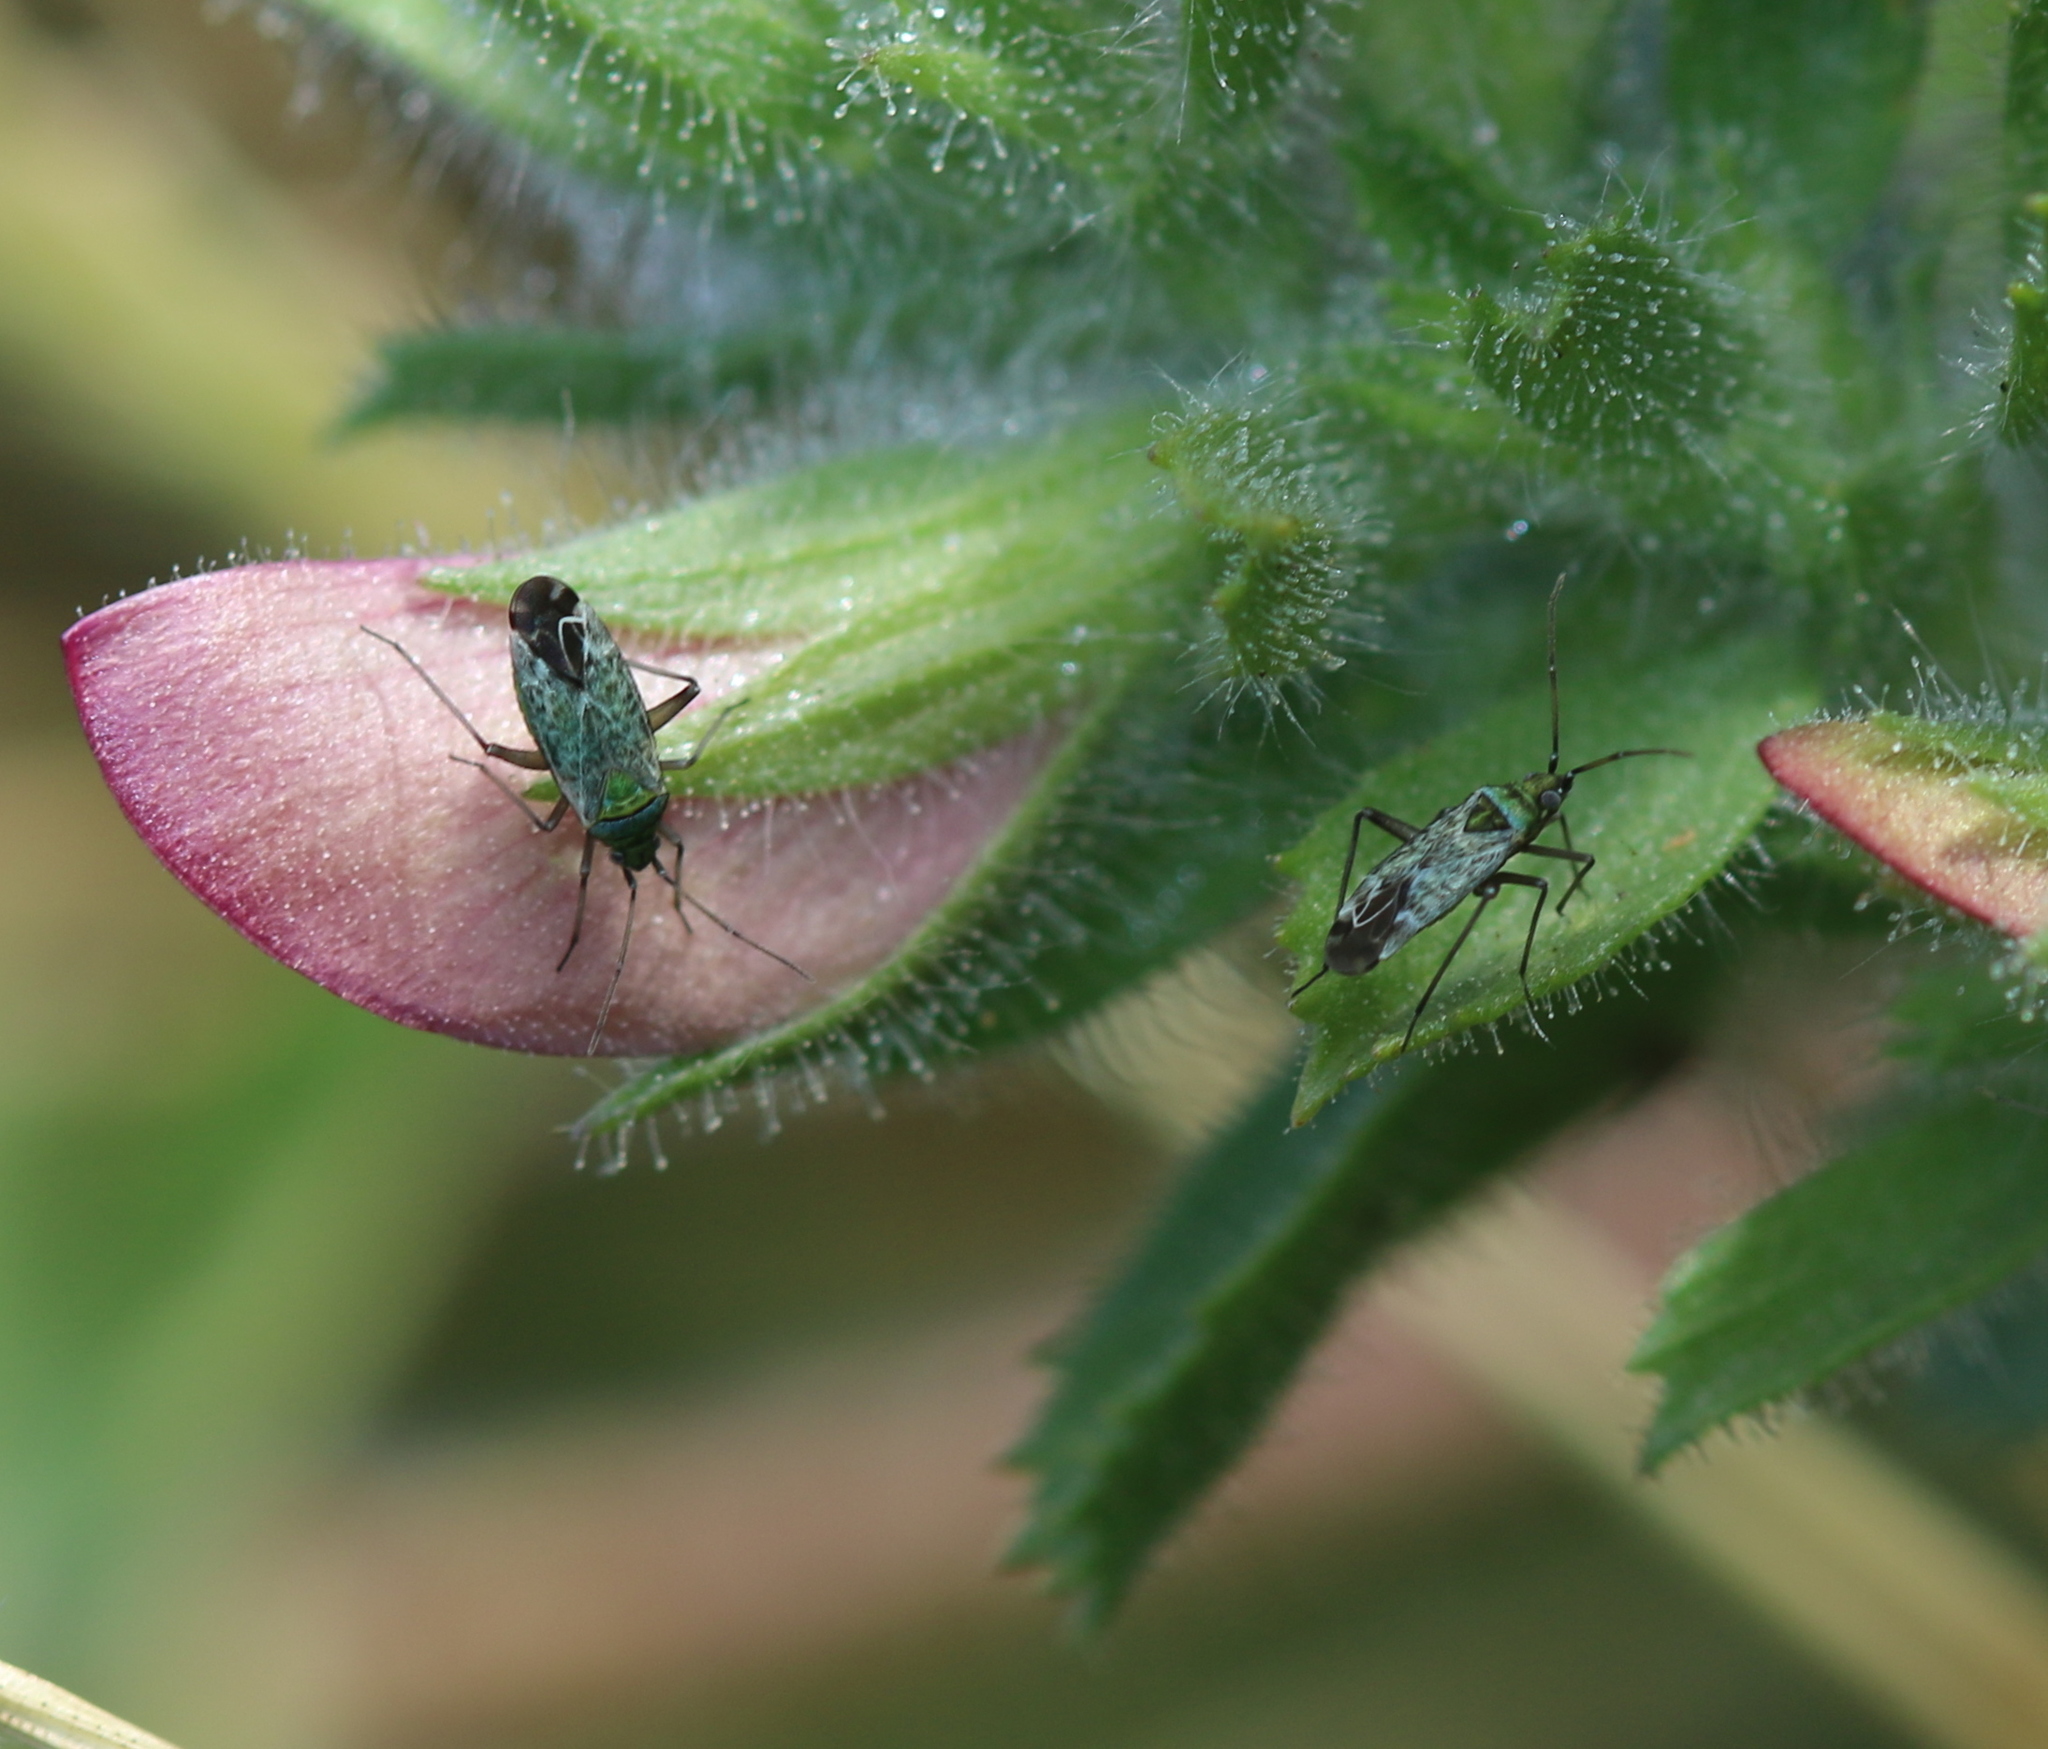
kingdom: Animalia
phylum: Arthropoda
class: Insecta
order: Hemiptera
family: Miridae
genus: Macrotylus
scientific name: Macrotylus paykullii
